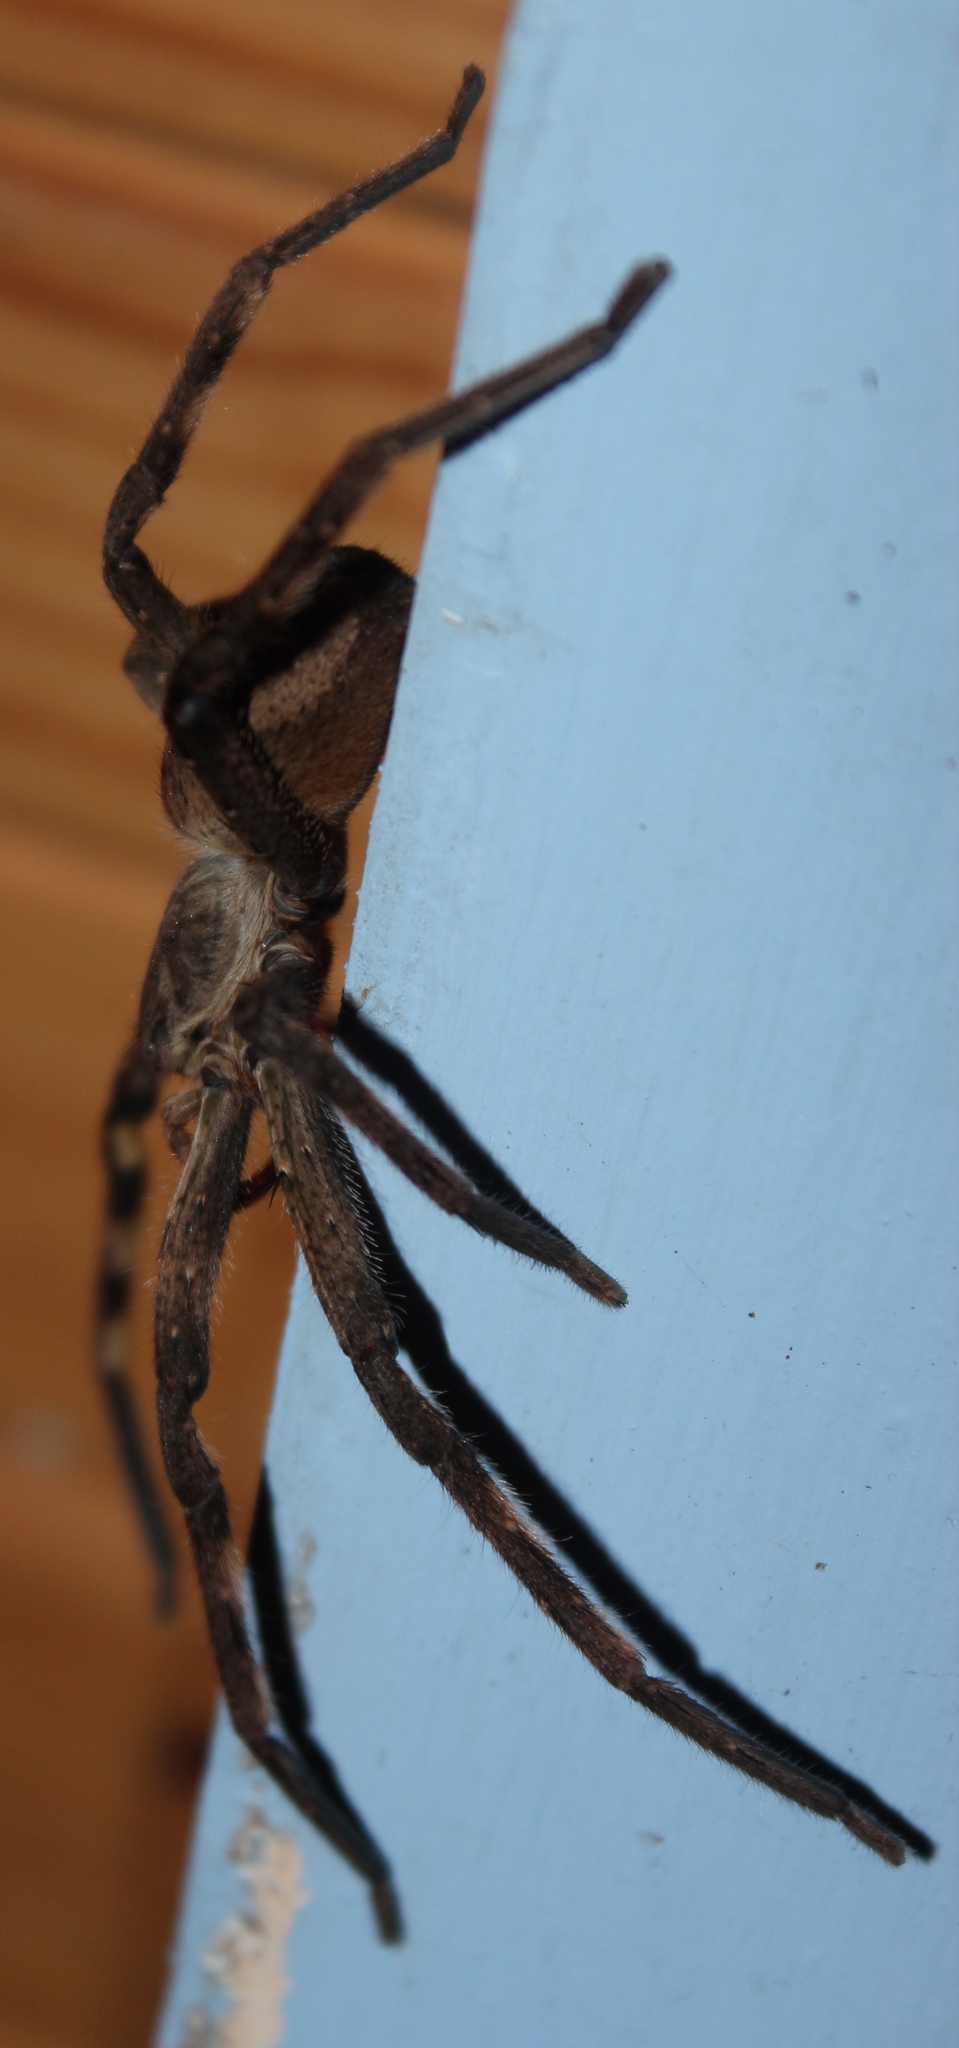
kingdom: Animalia
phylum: Arthropoda
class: Arachnida
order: Araneae
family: Sparassidae
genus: Palystes
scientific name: Palystes superciliosus
